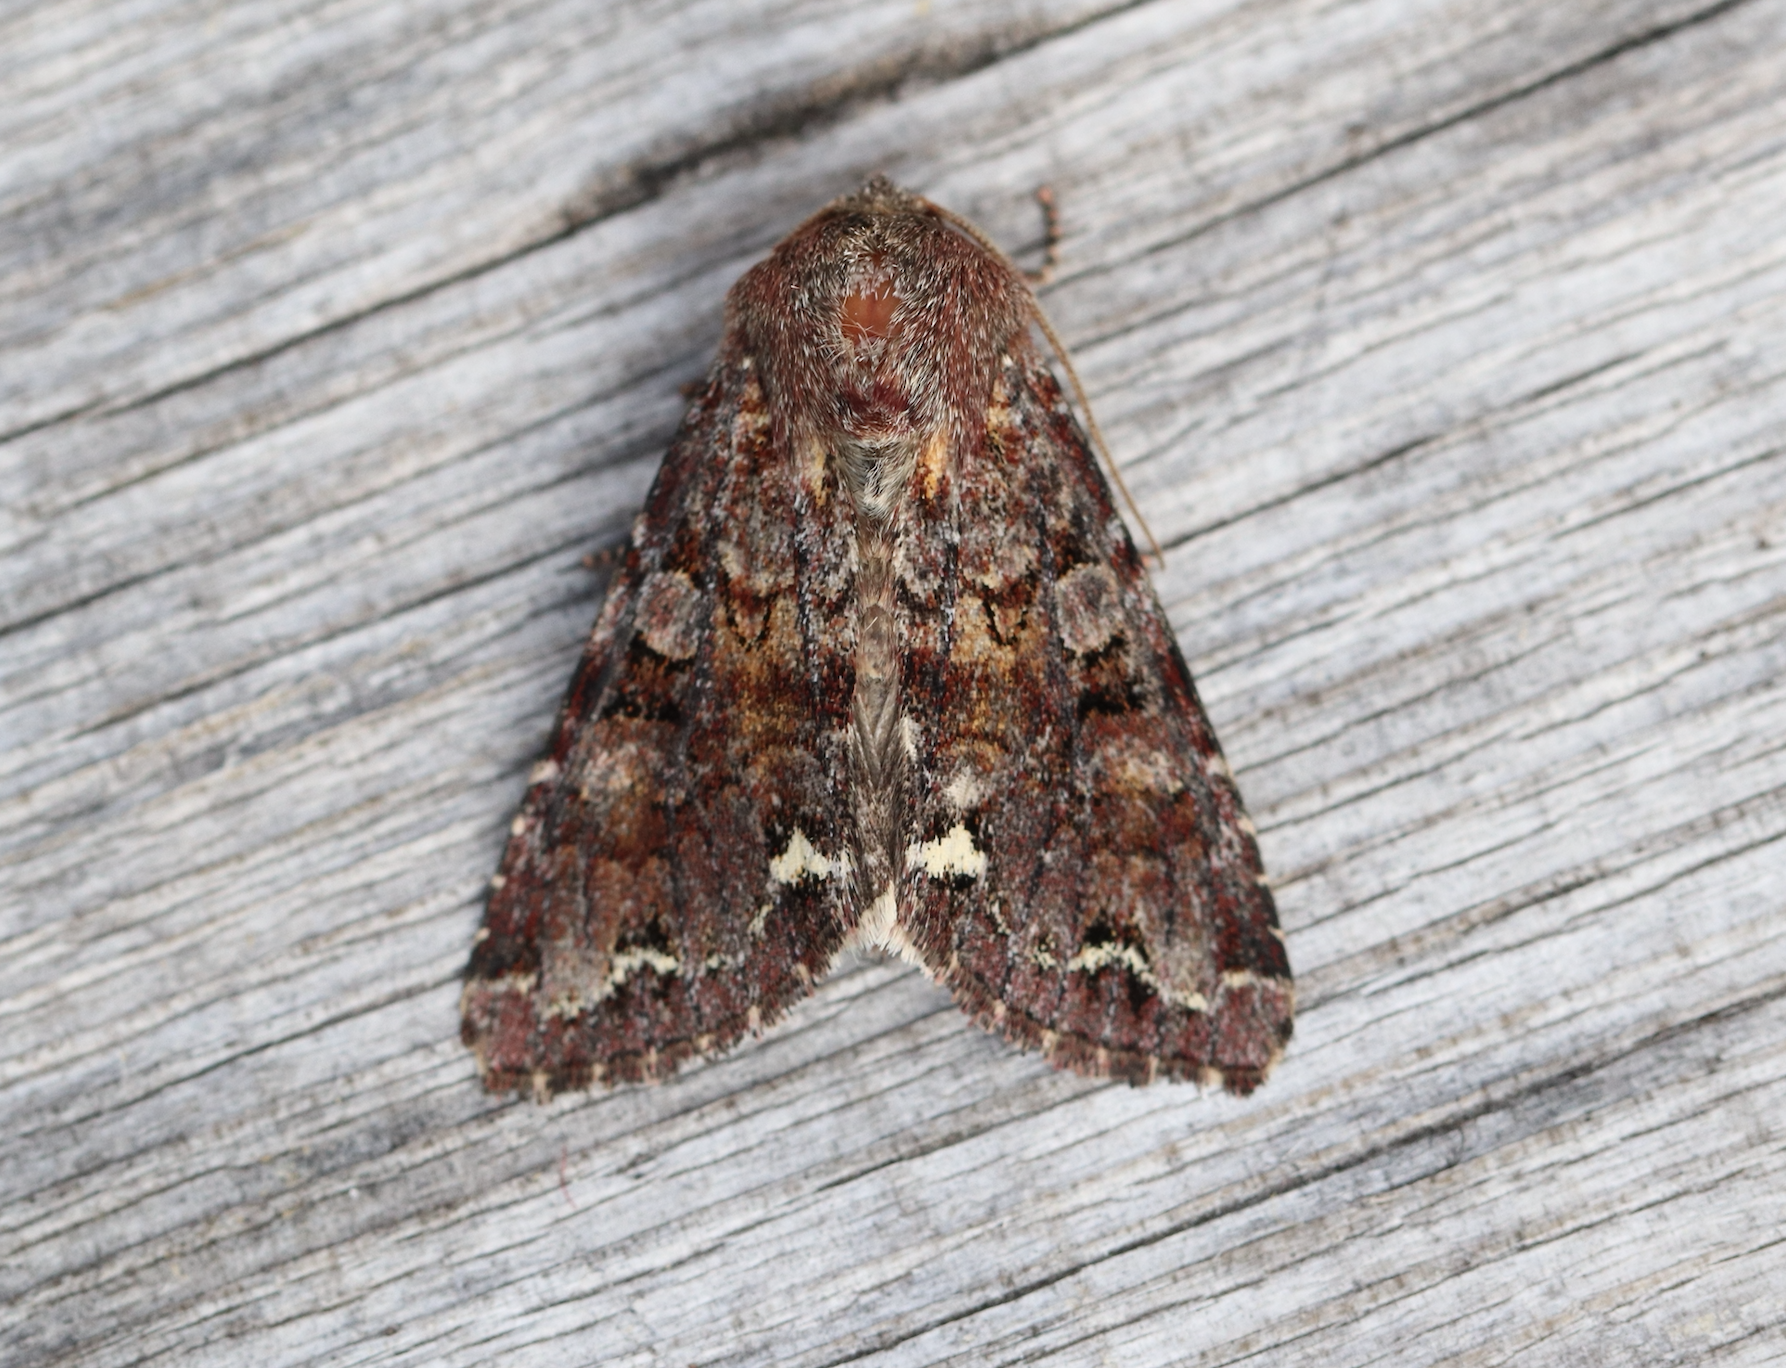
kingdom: Animalia
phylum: Arthropoda
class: Insecta
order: Lepidoptera
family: Noctuidae
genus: Ceramica
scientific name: Ceramica pisi
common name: Broom moth
